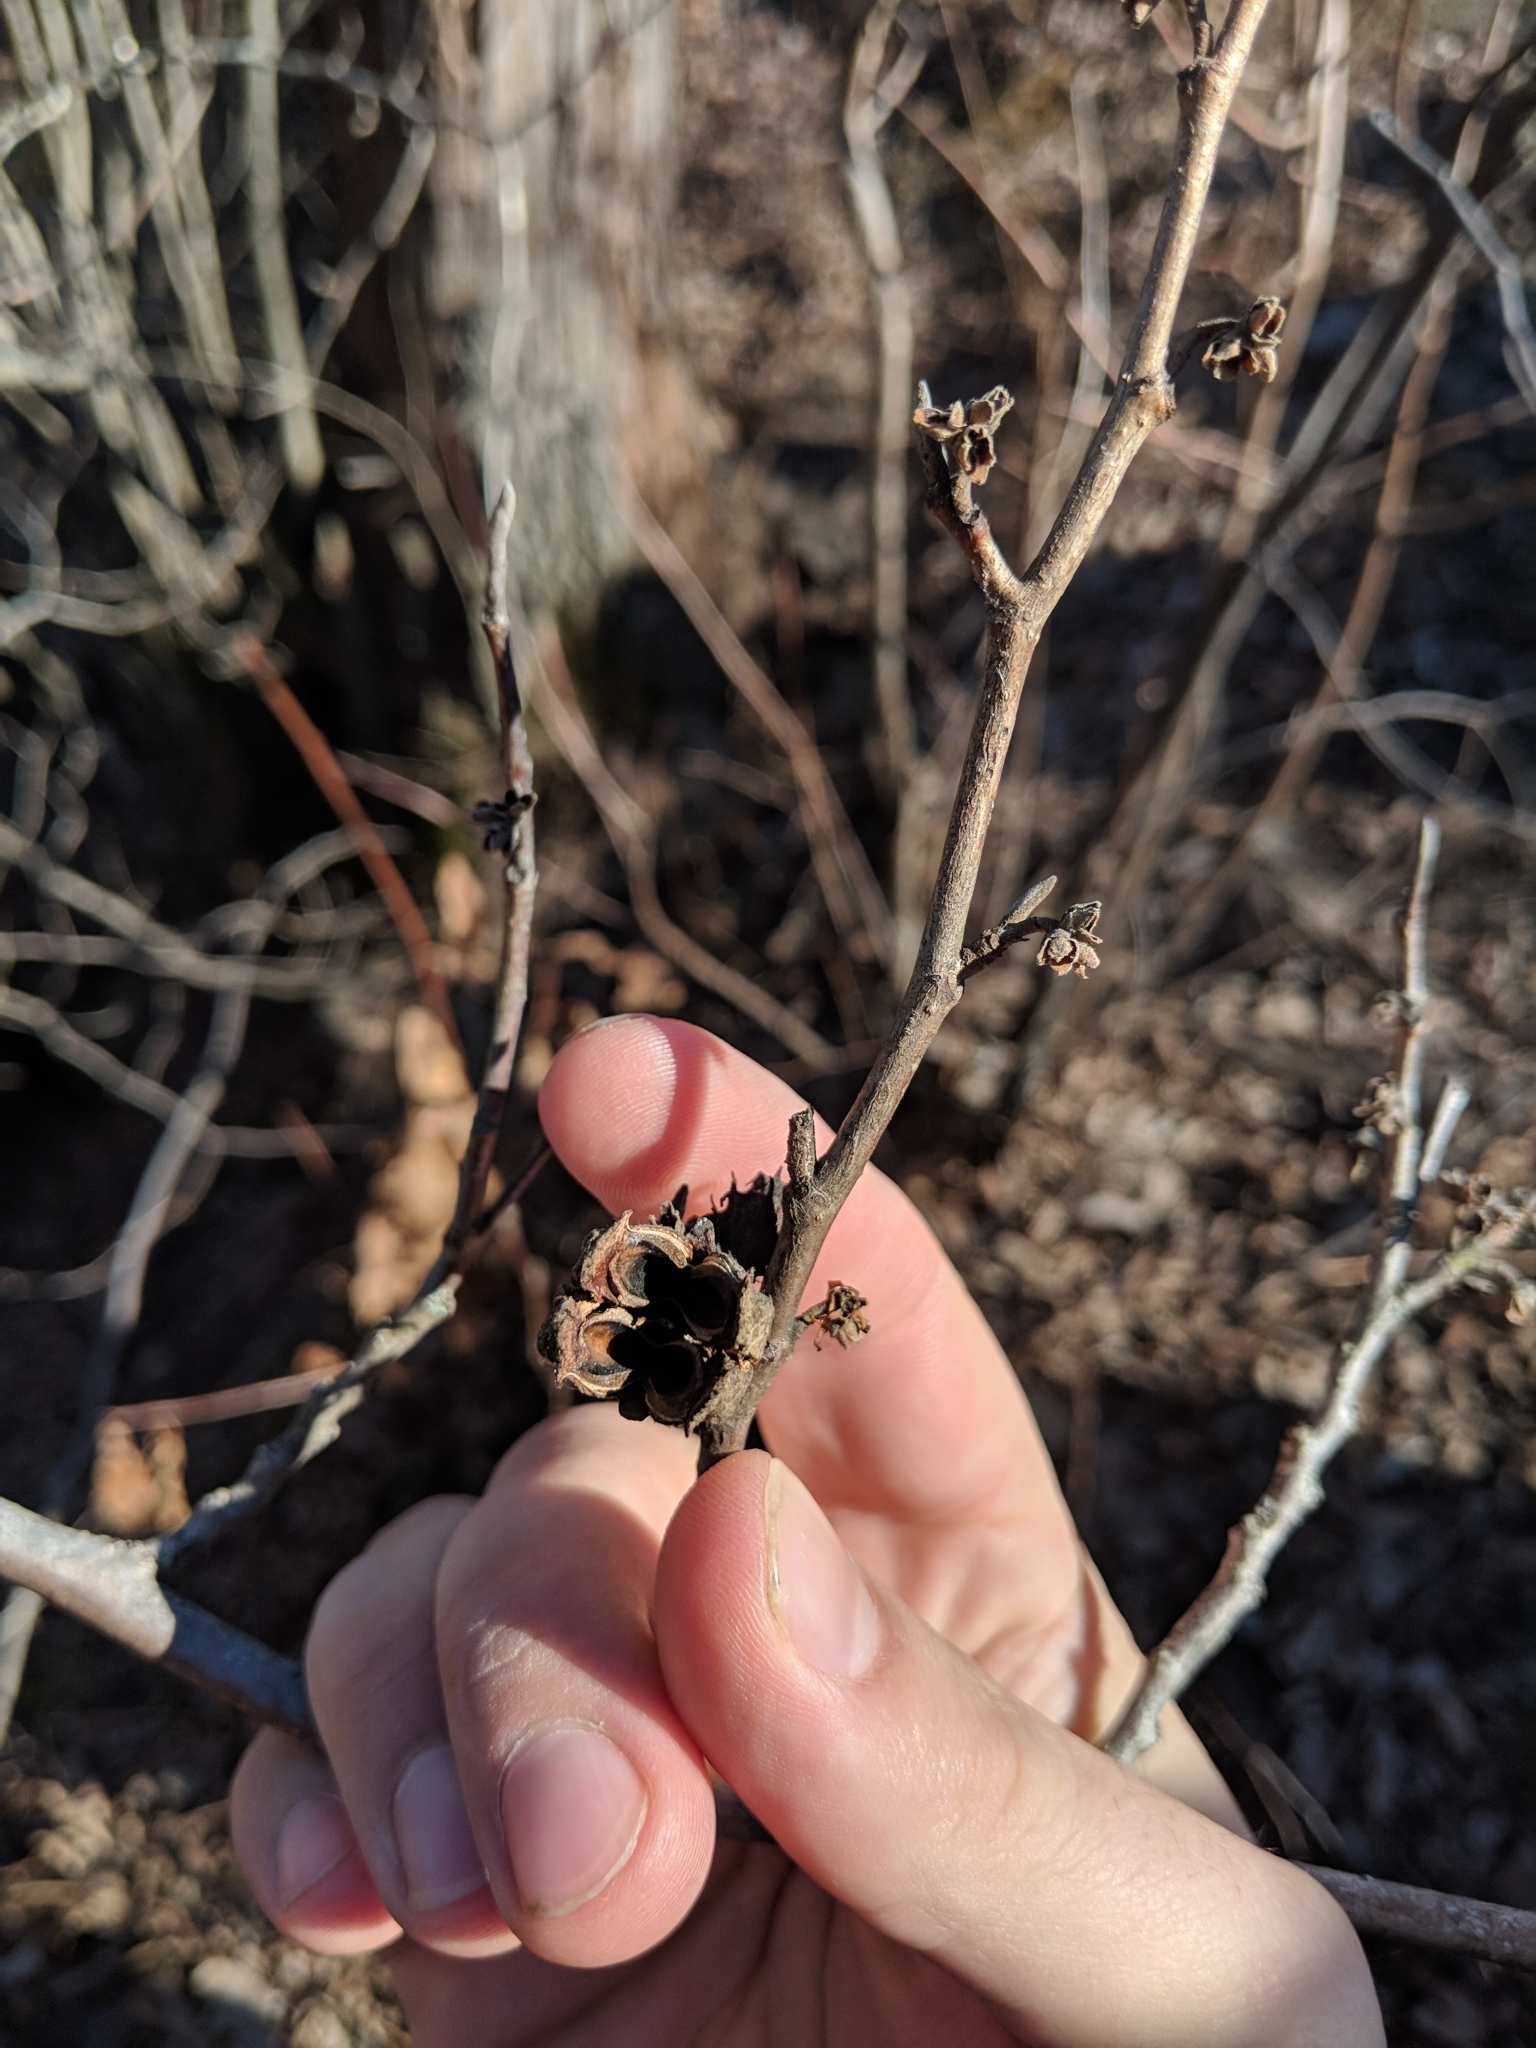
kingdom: Plantae
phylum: Tracheophyta
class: Magnoliopsida
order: Saxifragales
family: Hamamelidaceae
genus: Hamamelis
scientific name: Hamamelis virginiana
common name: Witch-hazel
